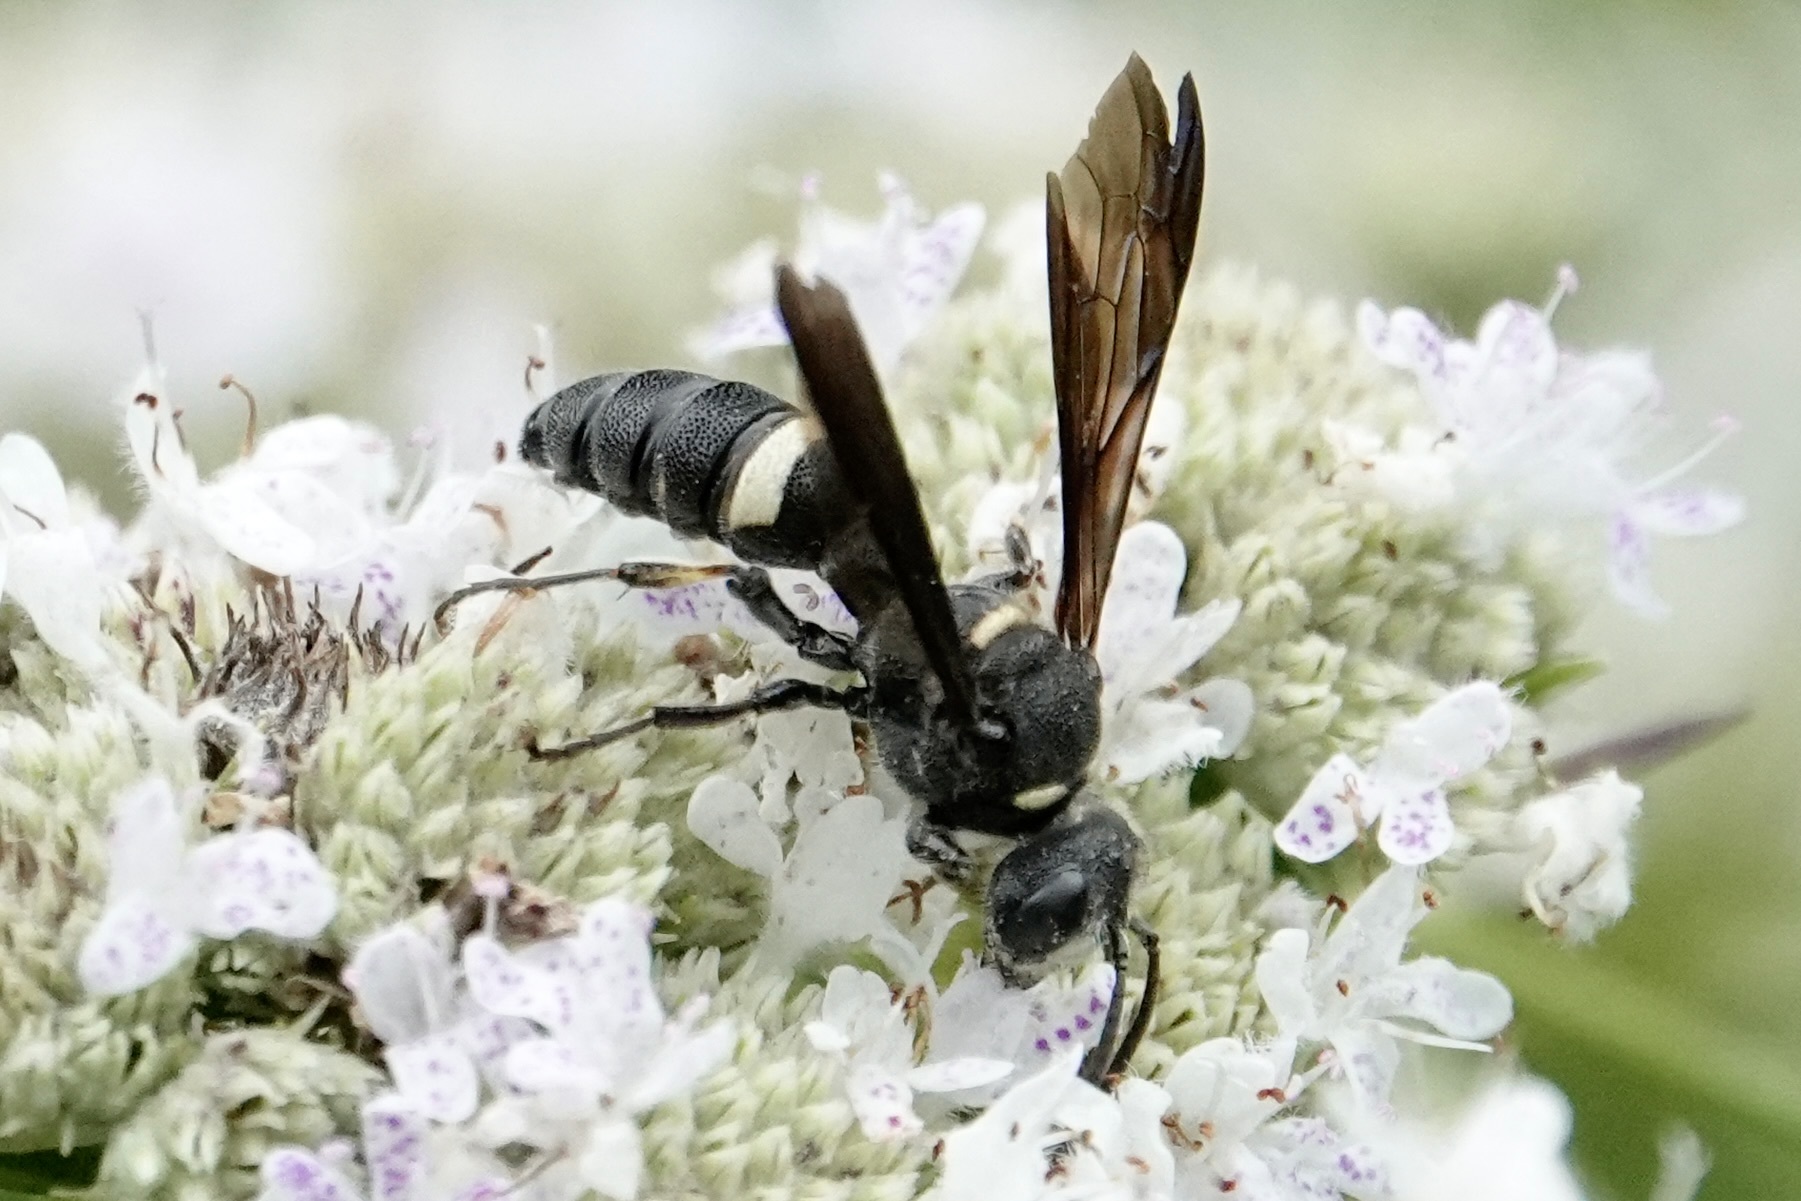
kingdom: Animalia
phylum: Arthropoda
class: Insecta
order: Hymenoptera
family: Crabronidae
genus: Cerceris
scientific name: Cerceris fumipennis
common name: Smokey-winged beetle bandit wasp
